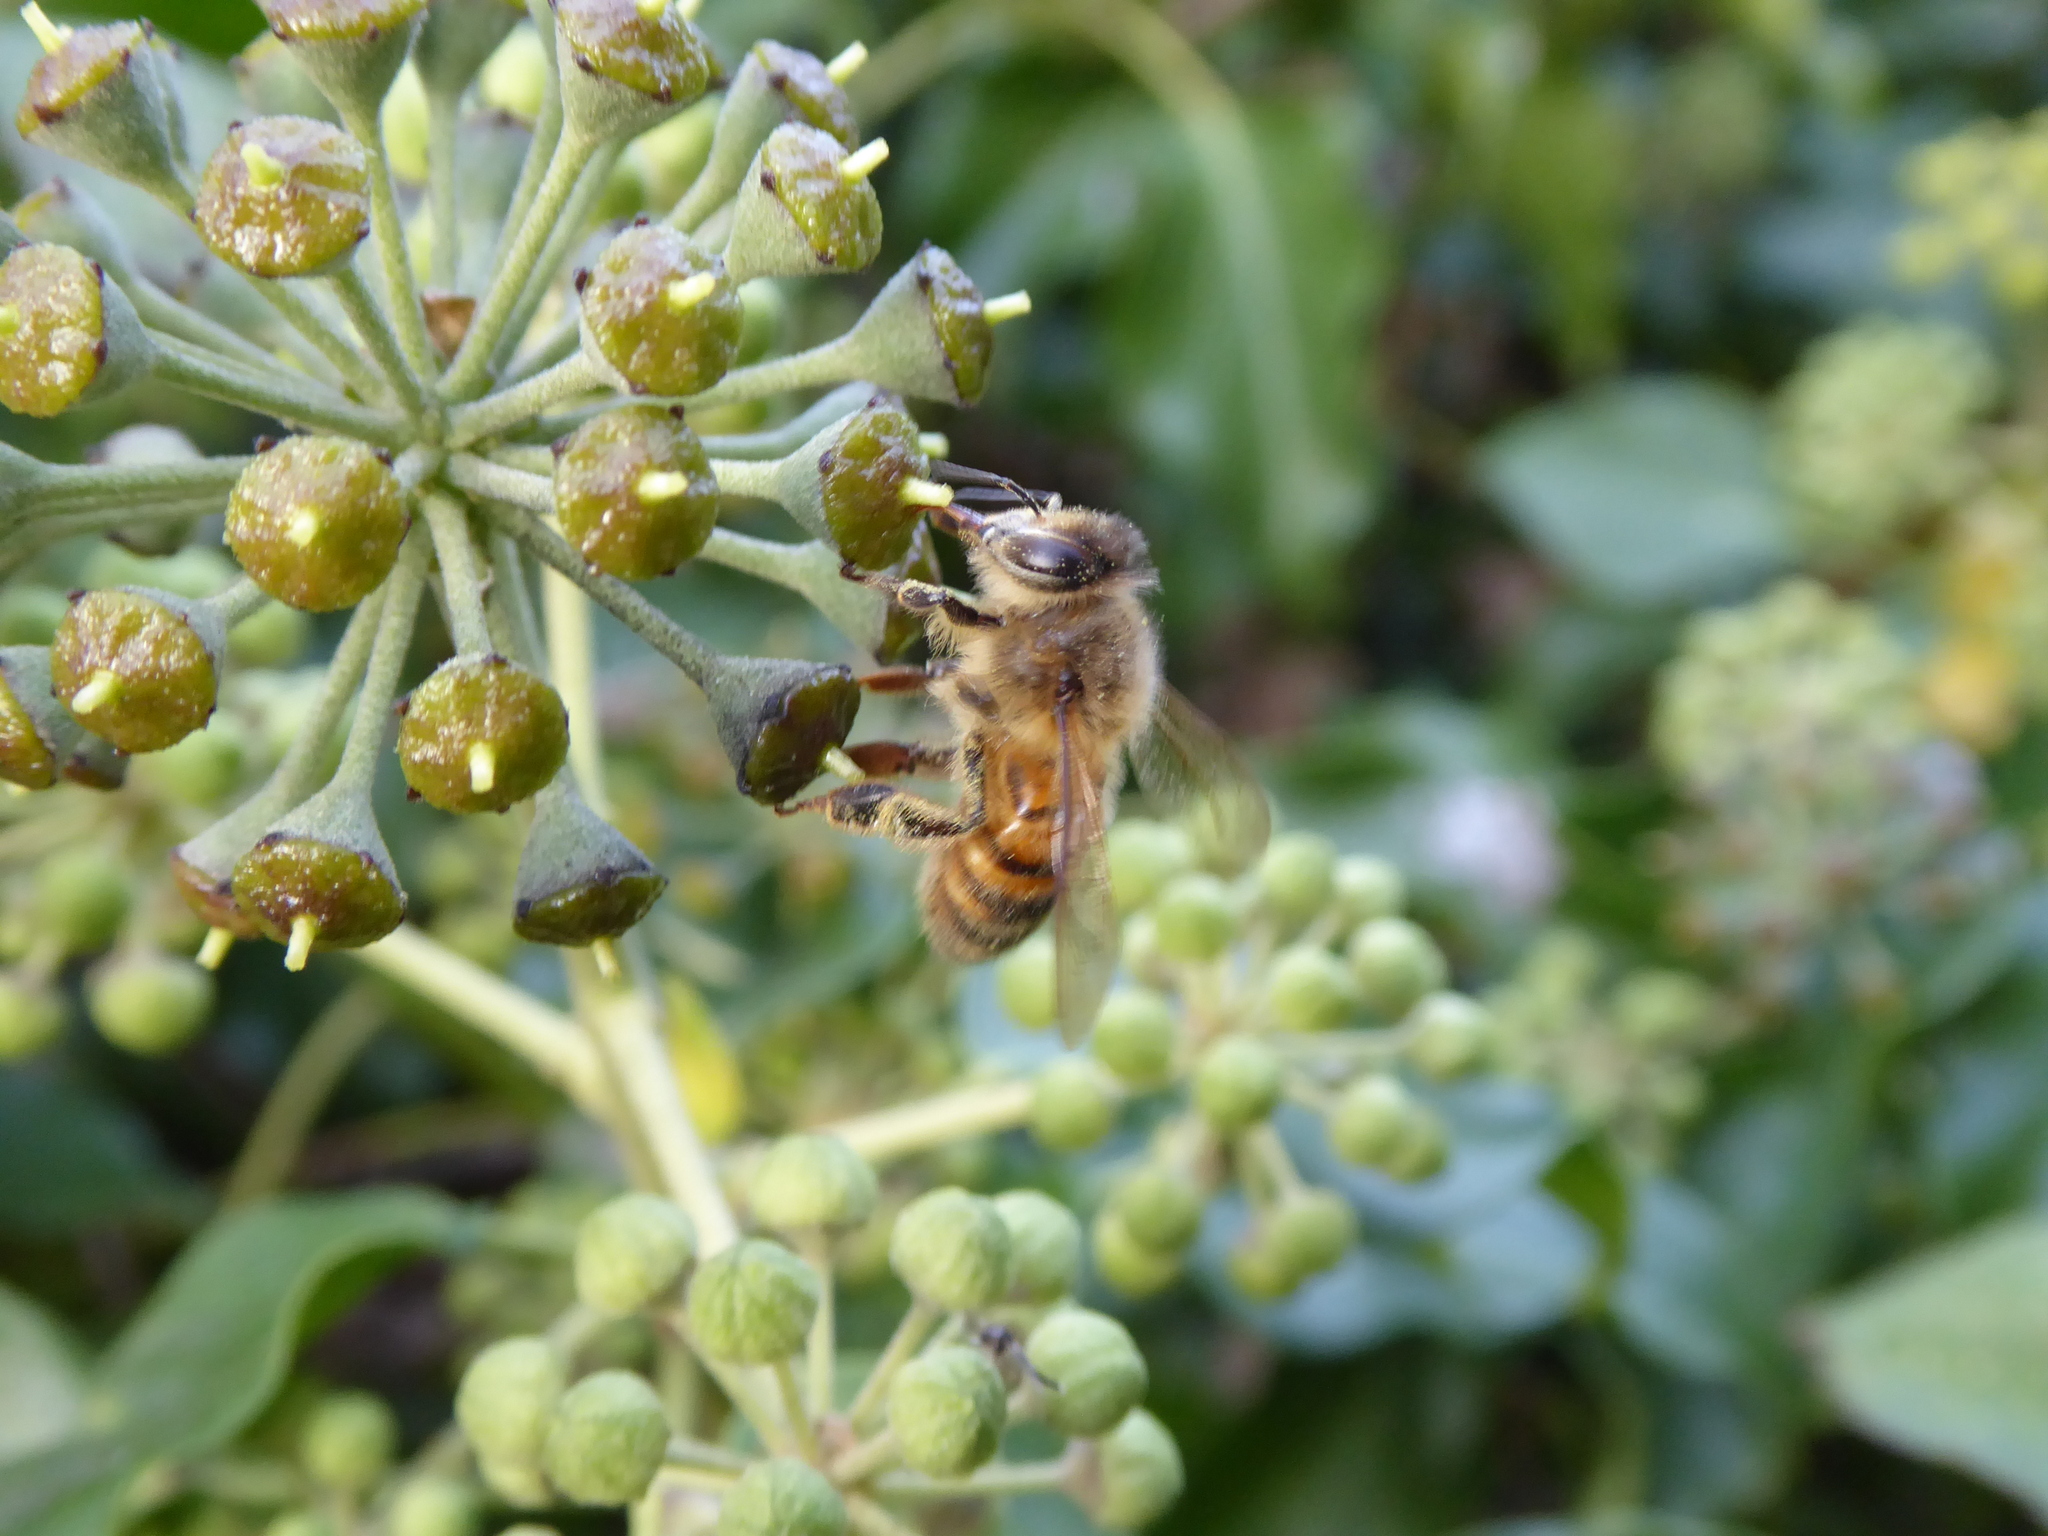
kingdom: Animalia
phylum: Arthropoda
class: Insecta
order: Hymenoptera
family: Apidae
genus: Apis
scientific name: Apis mellifera
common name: Honey bee
